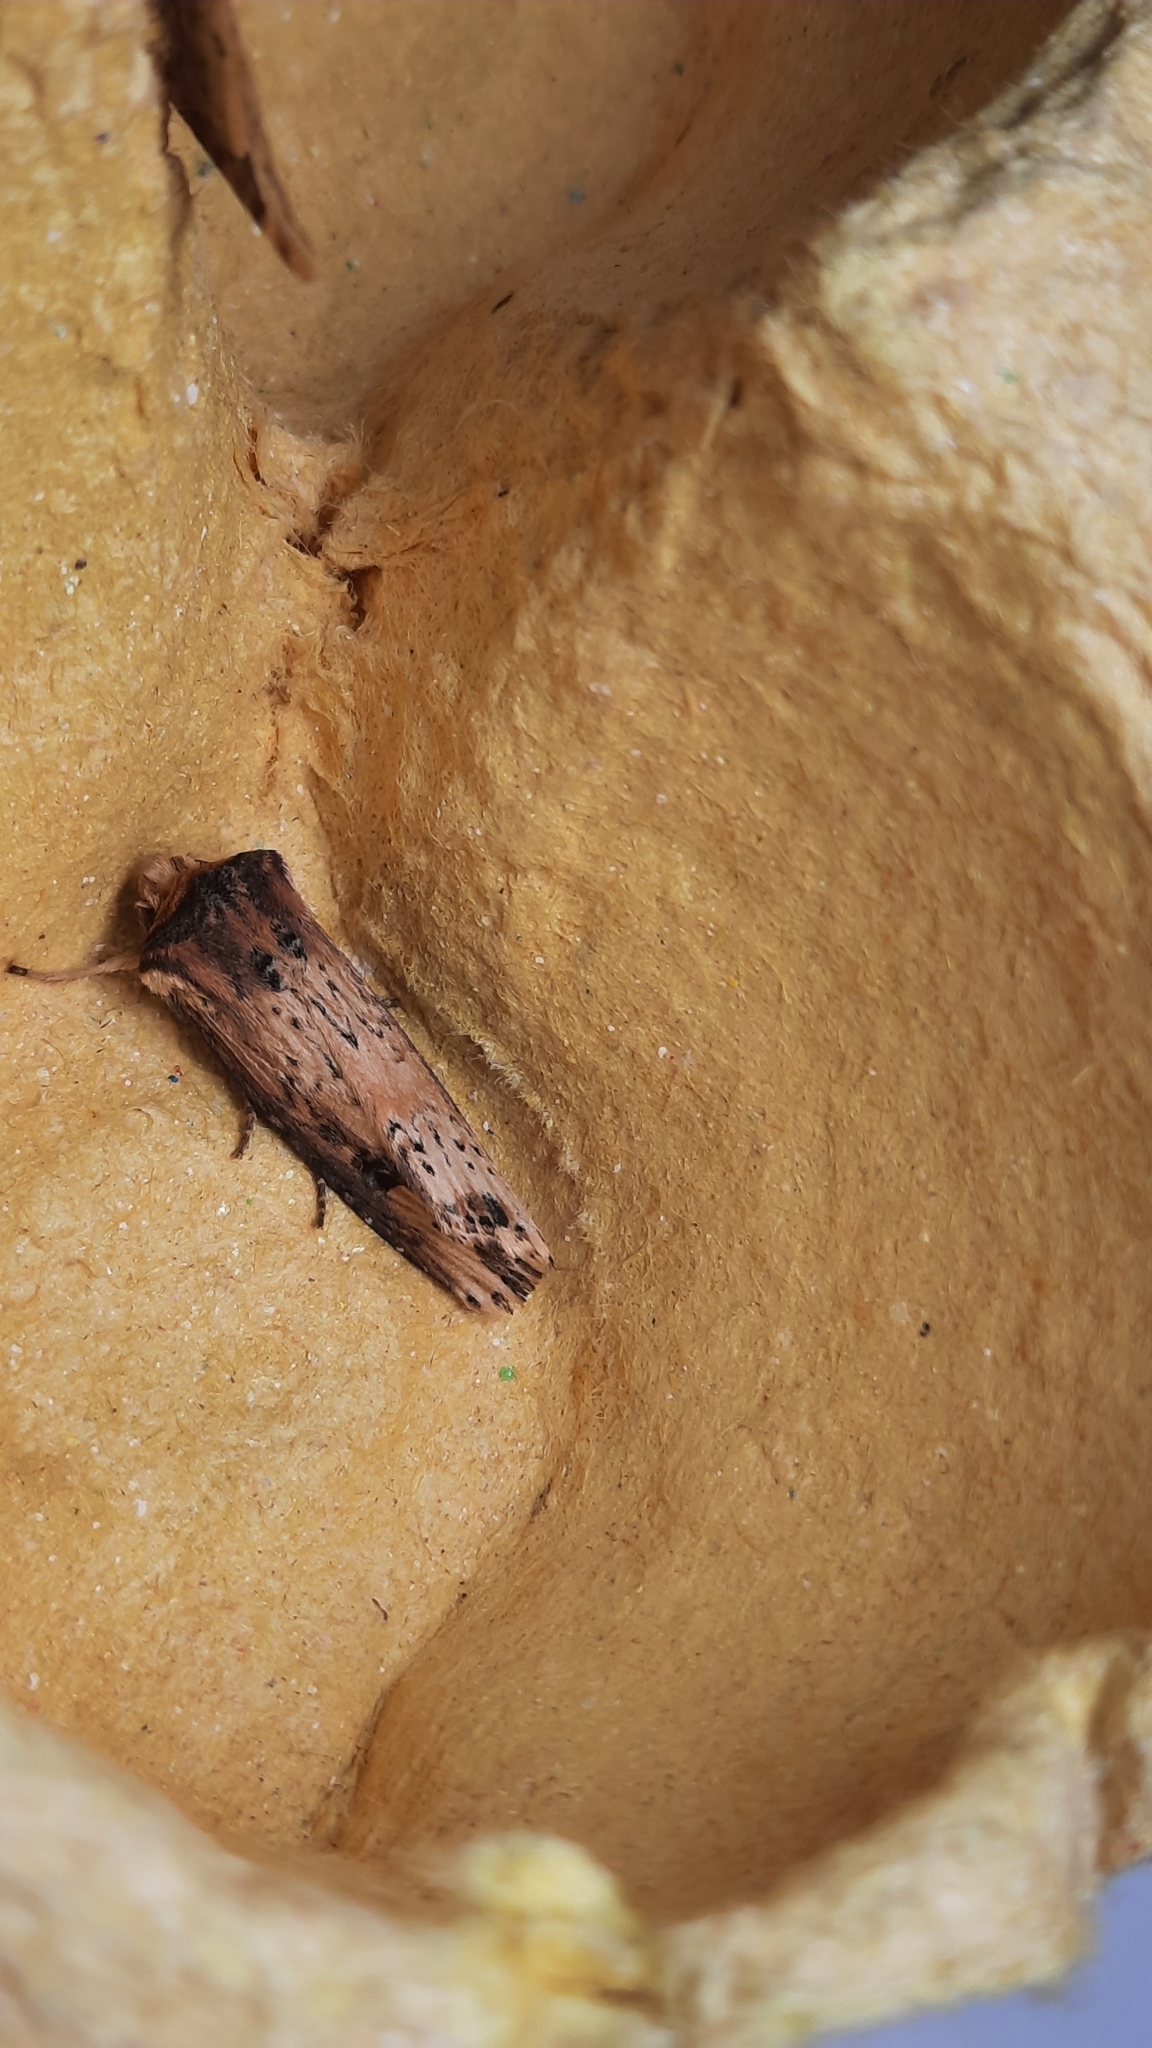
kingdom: Animalia
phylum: Arthropoda
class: Insecta
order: Lepidoptera
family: Noctuidae
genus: Axylia
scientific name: Axylia putris
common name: Flame
